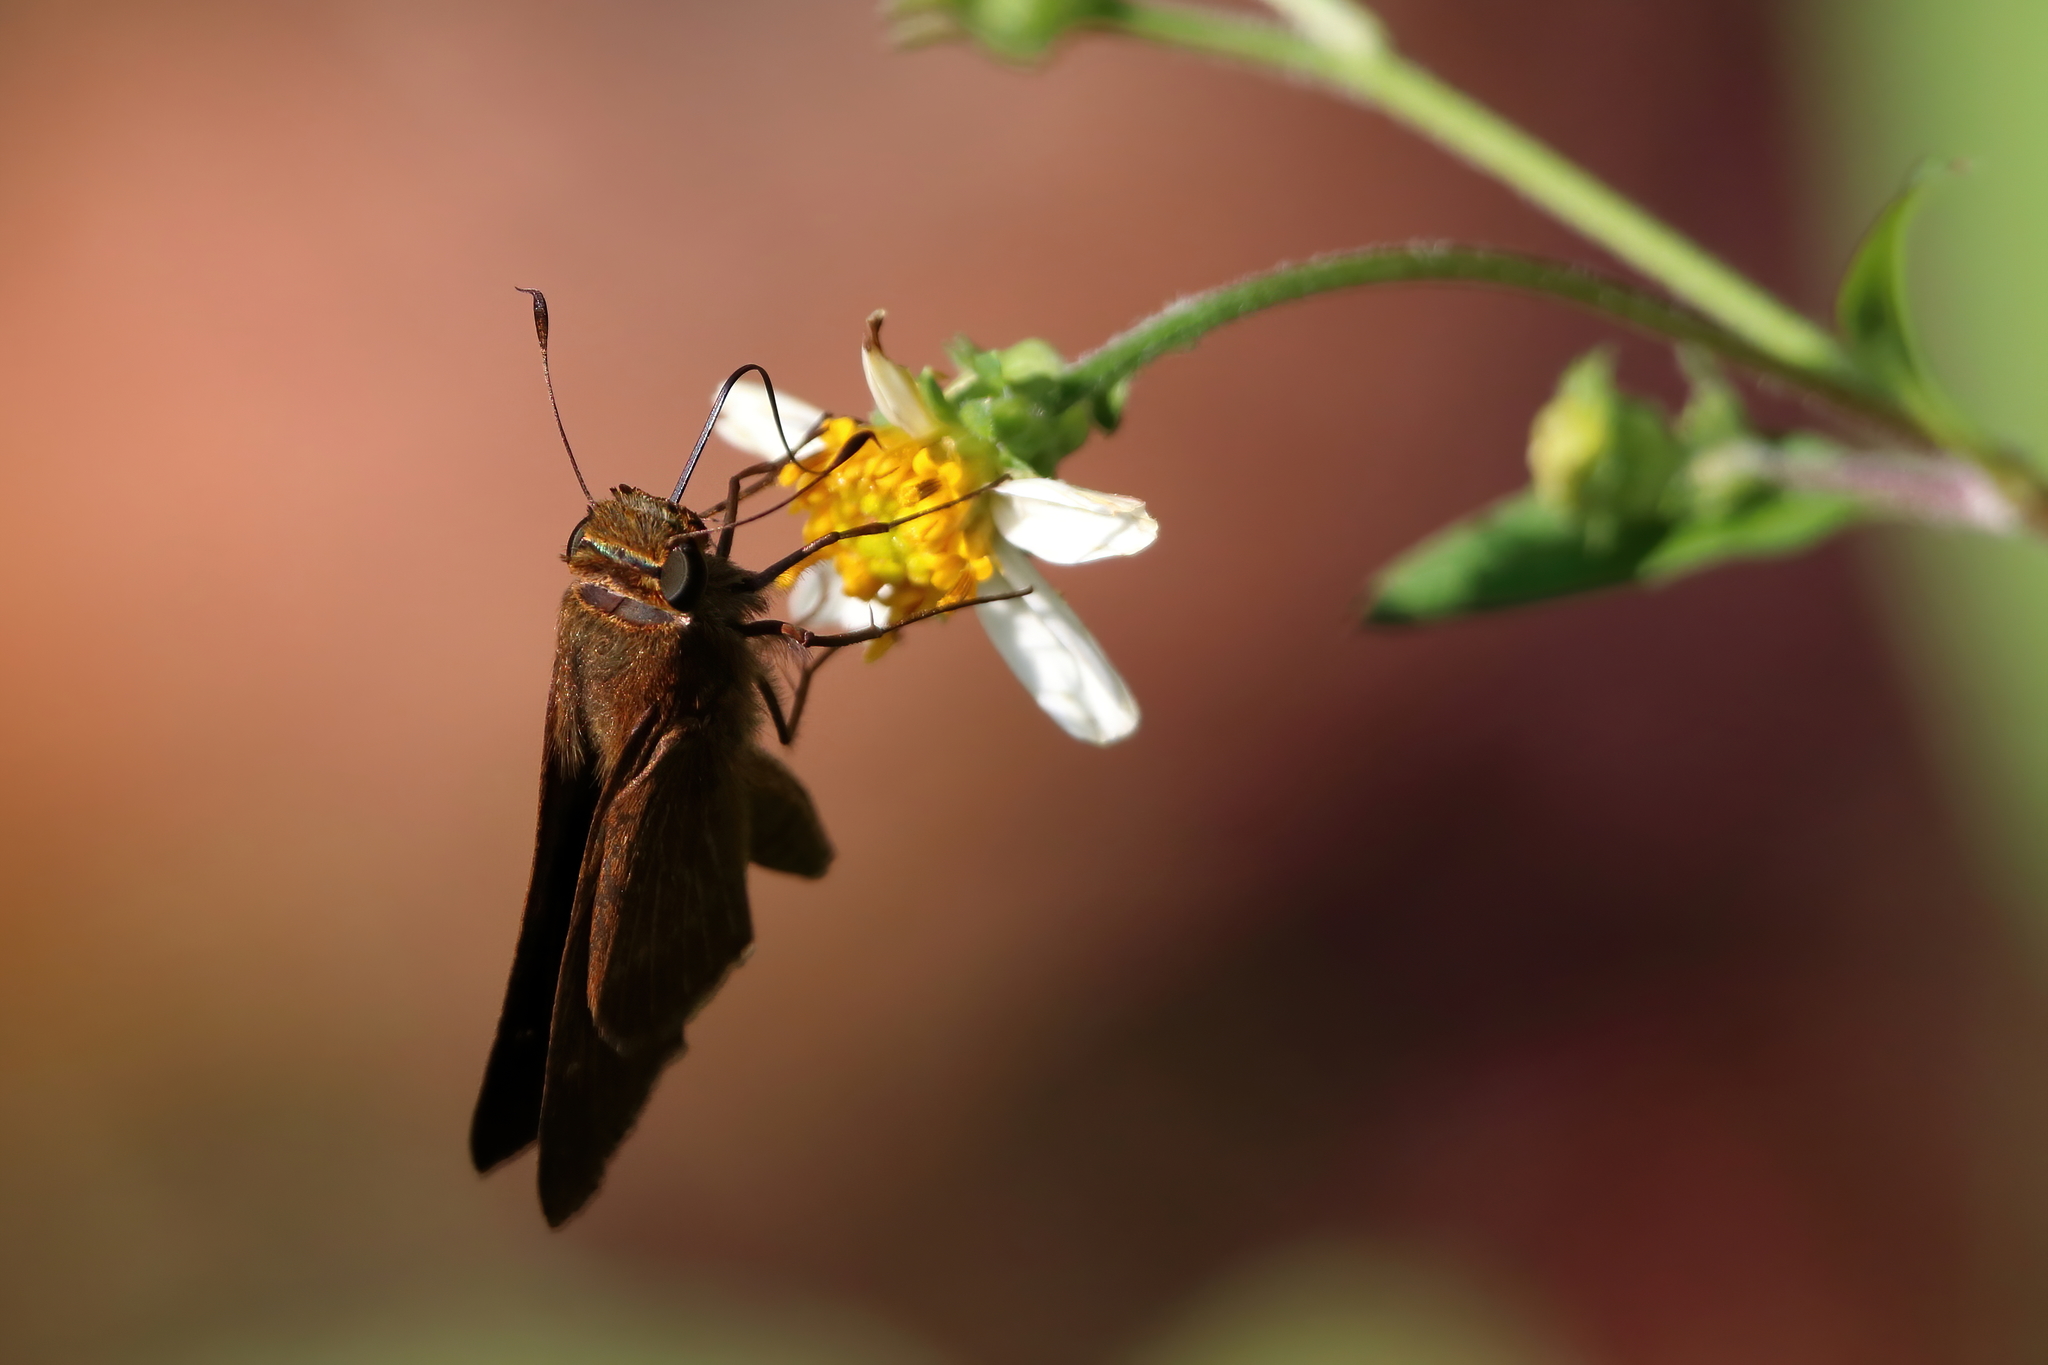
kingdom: Animalia
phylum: Arthropoda
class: Insecta
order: Lepidoptera
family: Hesperiidae
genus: Panoquina
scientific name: Panoquina ocola
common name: Ocola skipper
